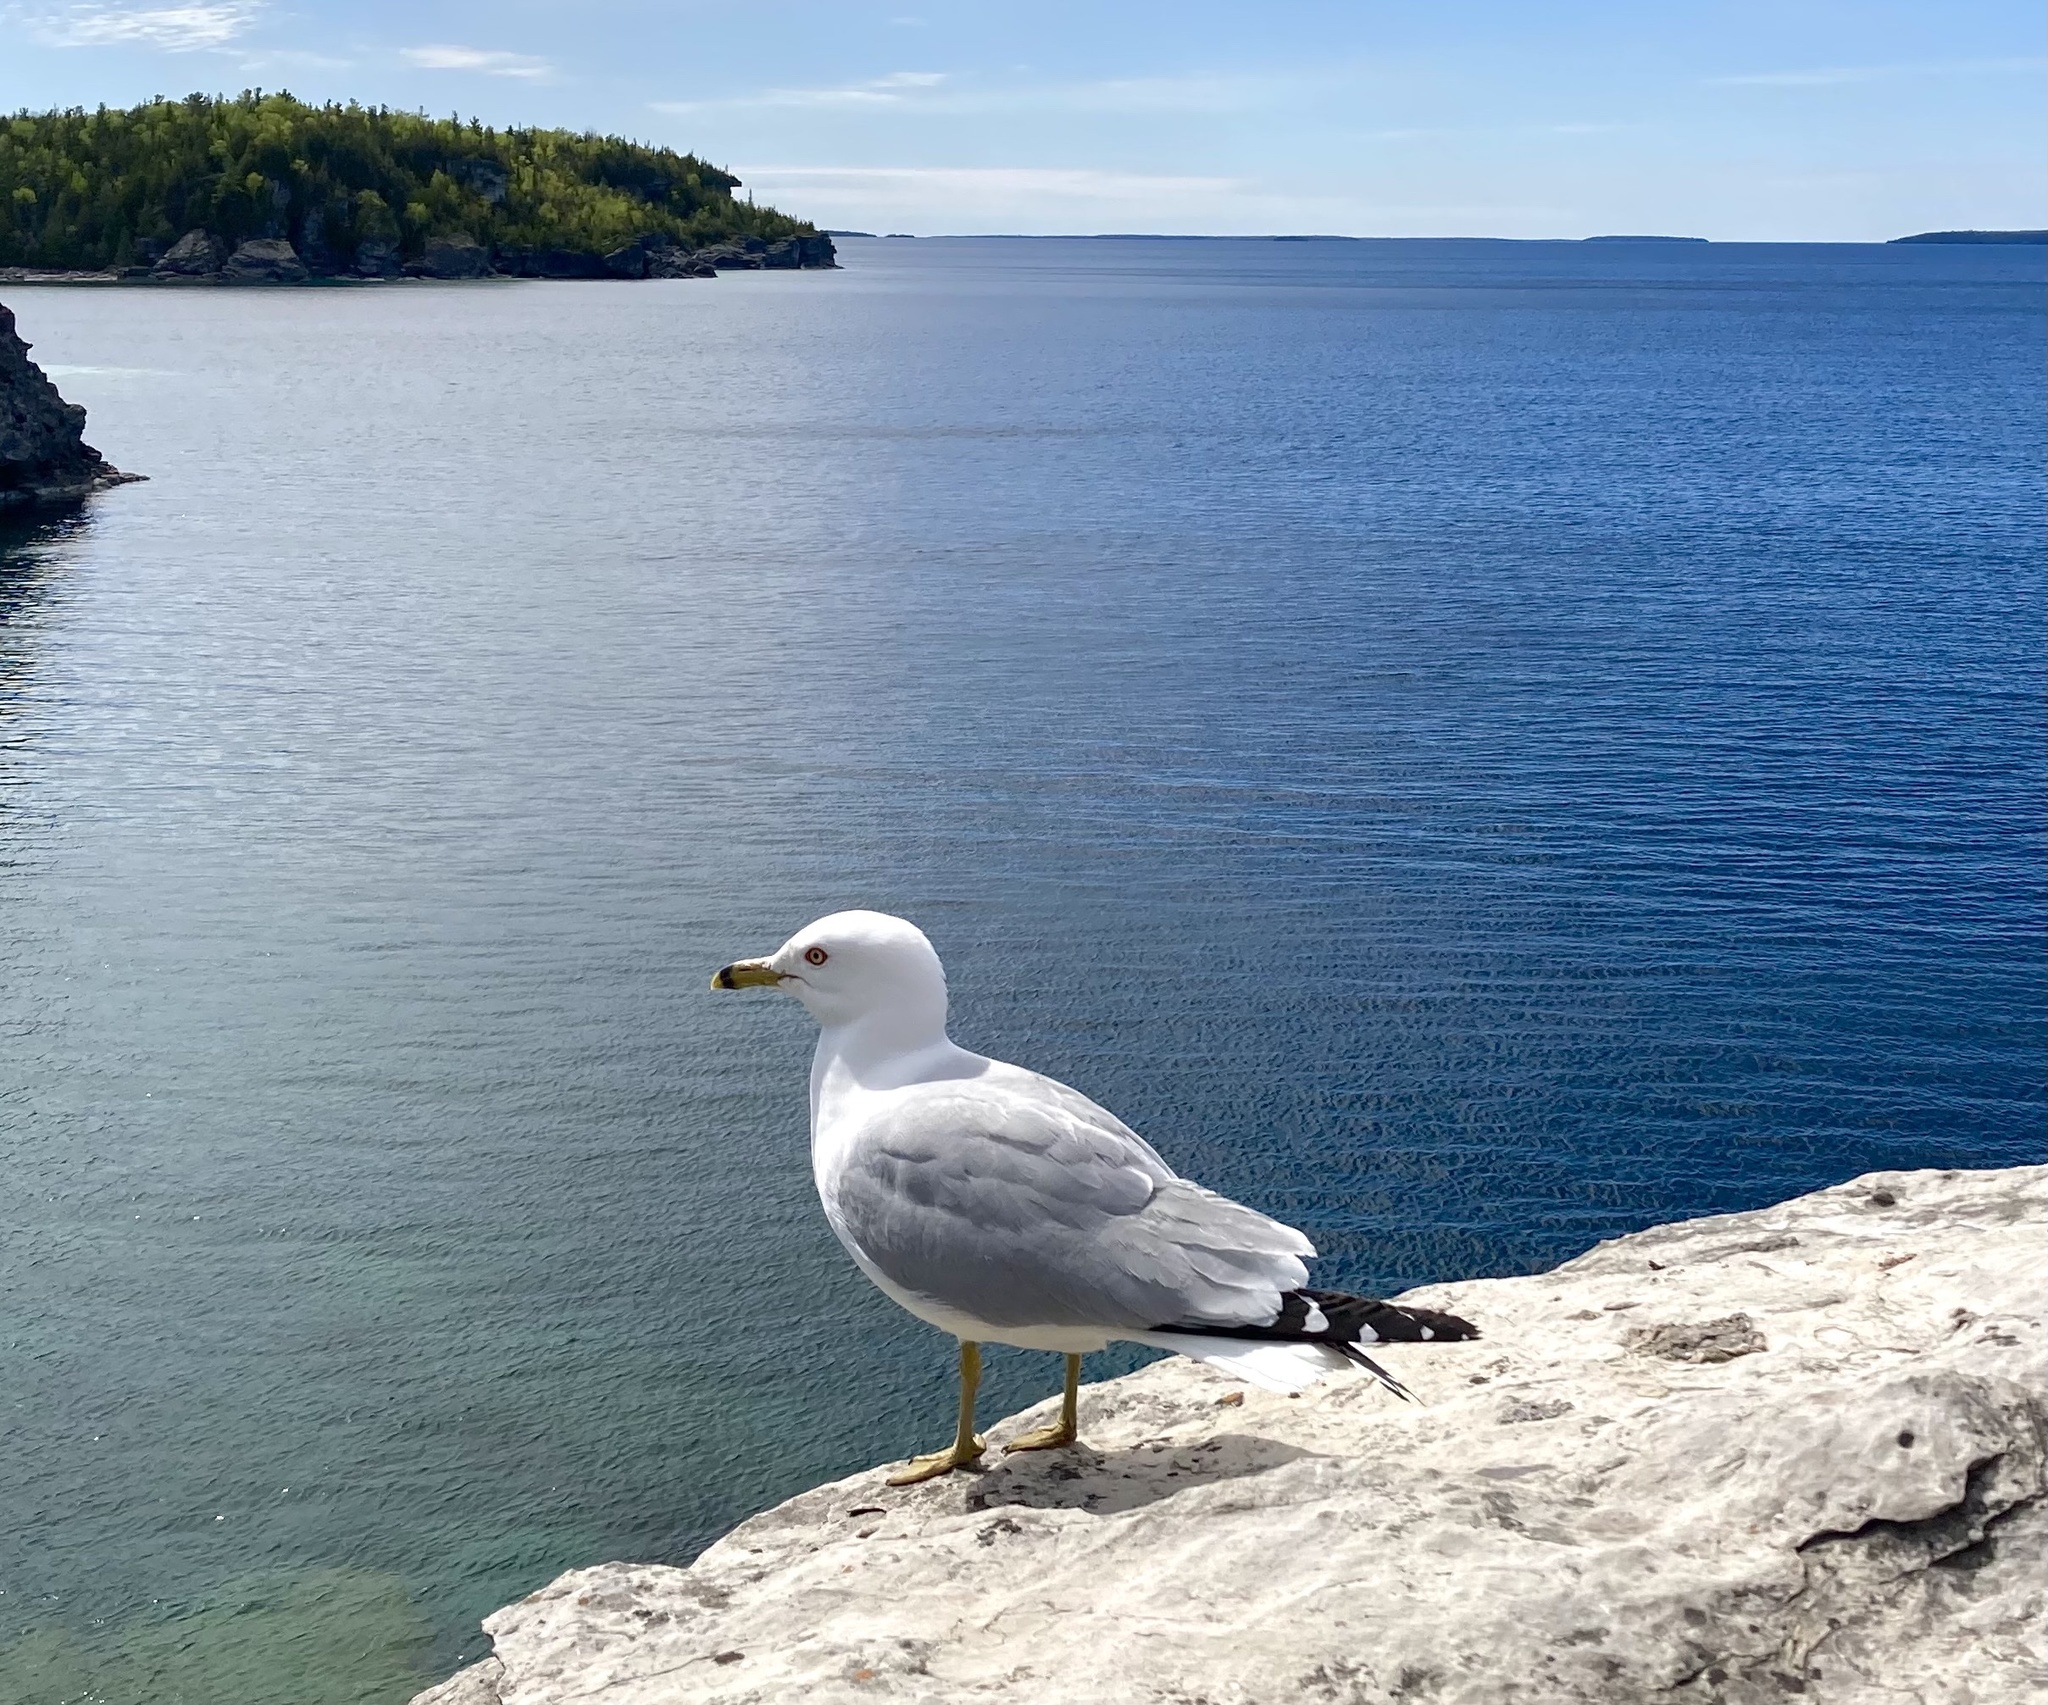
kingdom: Animalia
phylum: Chordata
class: Aves
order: Charadriiformes
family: Laridae
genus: Larus
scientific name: Larus delawarensis
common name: Ring-billed gull
